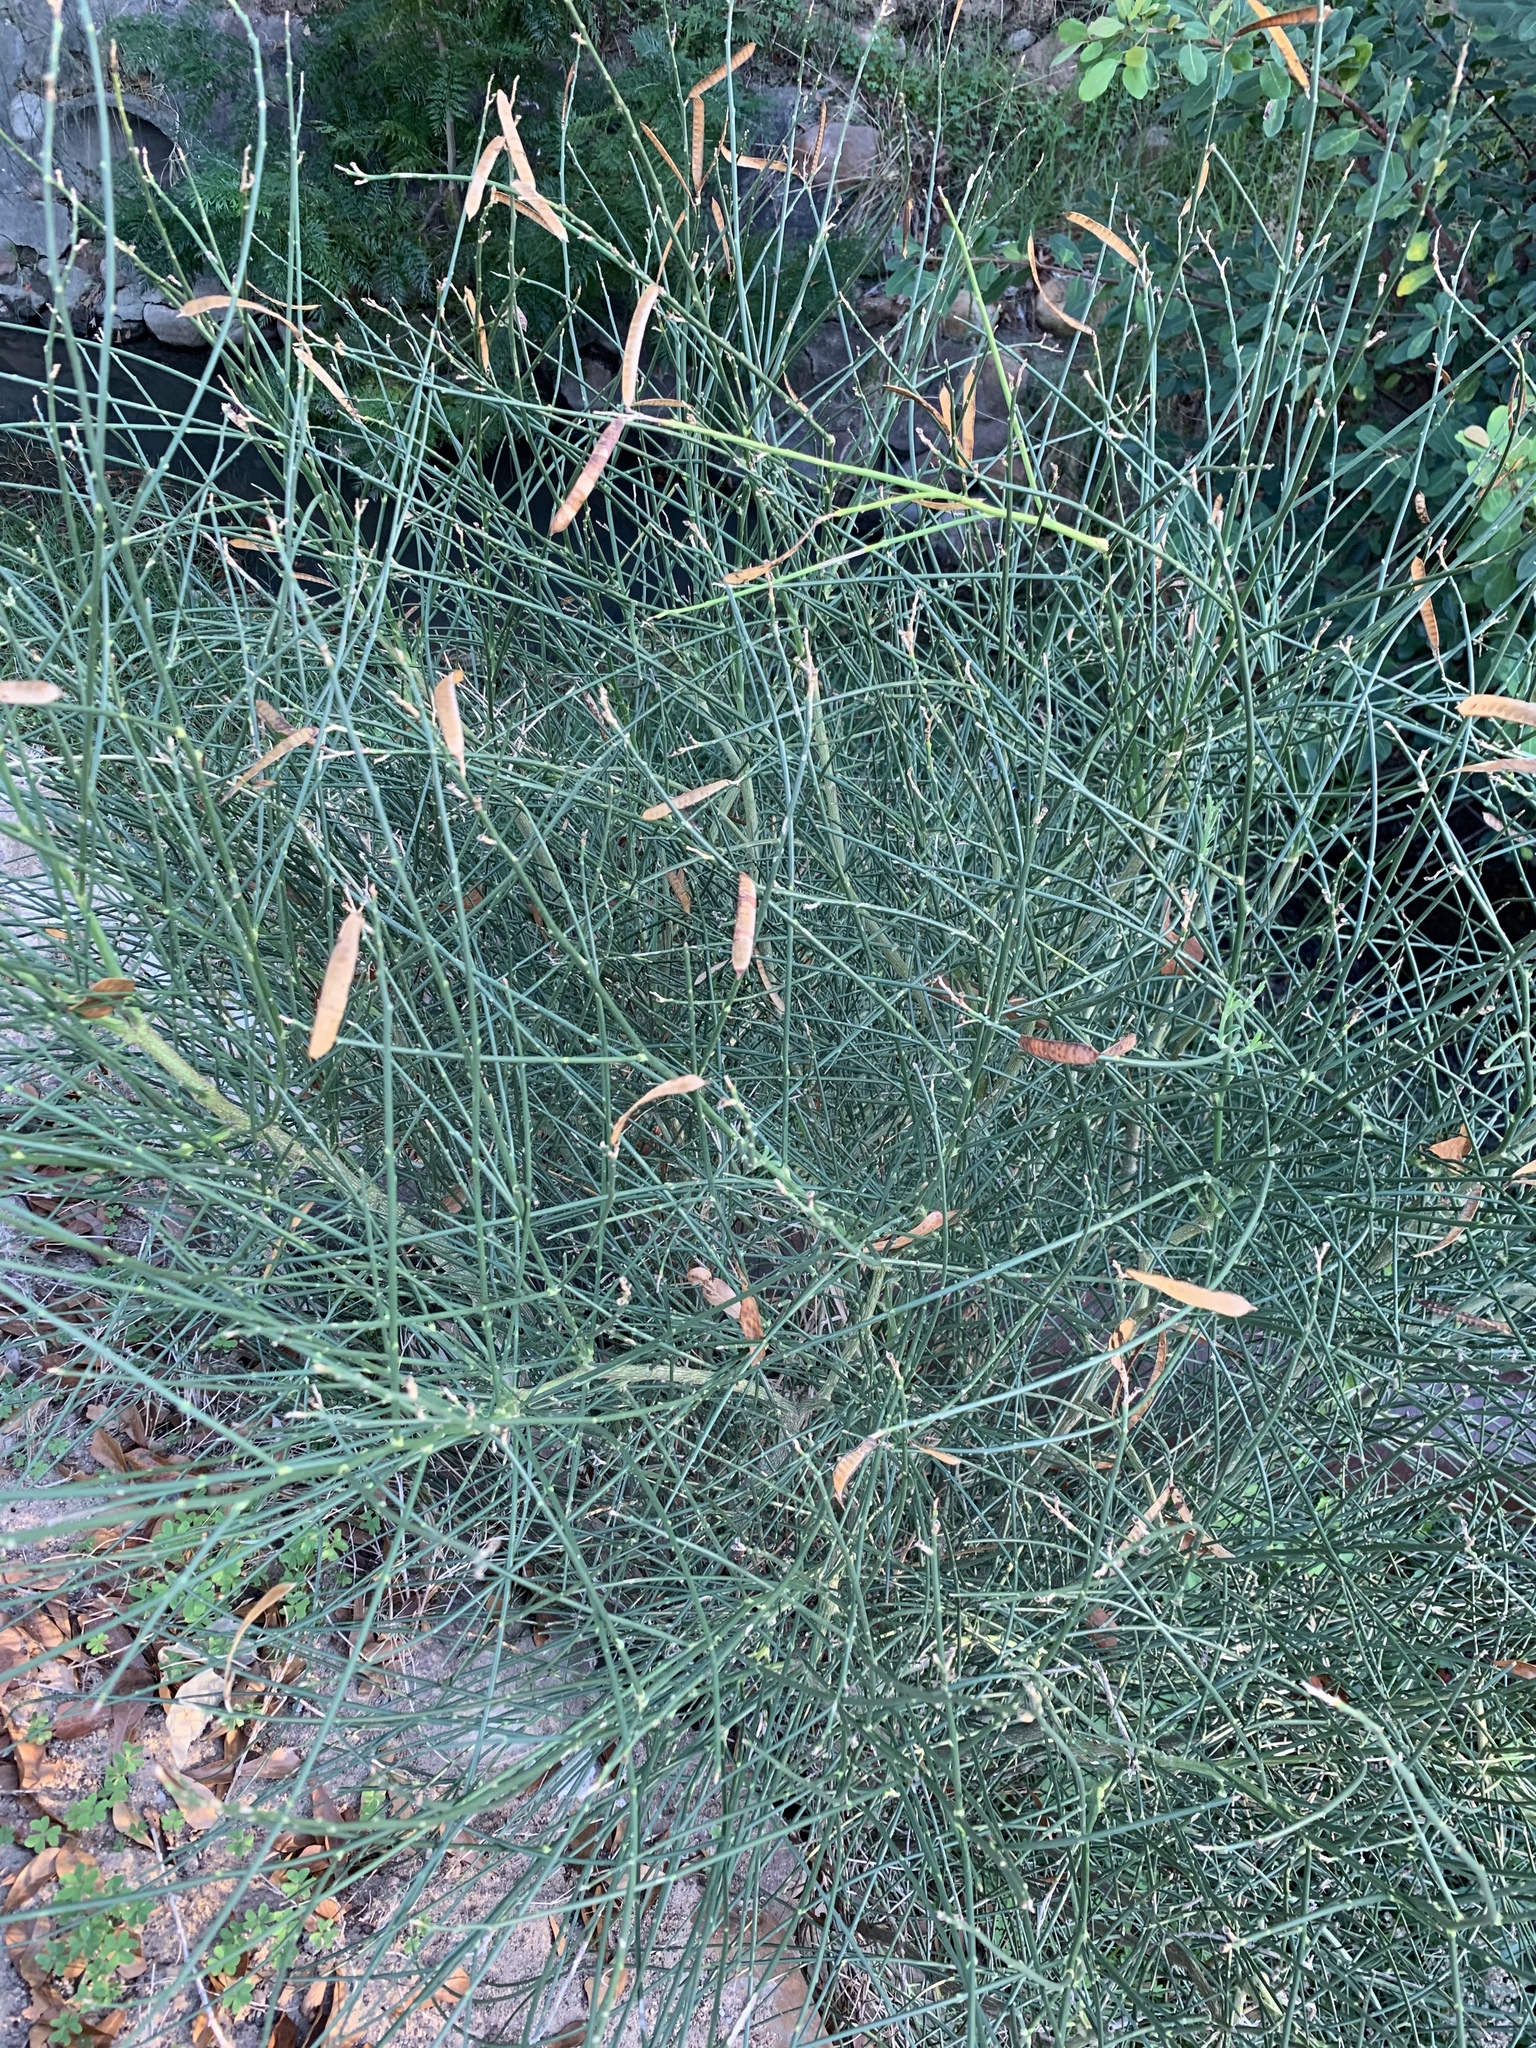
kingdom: Plantae
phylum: Tracheophyta
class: Magnoliopsida
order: Fabales
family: Fabaceae
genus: Spartium
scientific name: Spartium junceum
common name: Spanish broom
